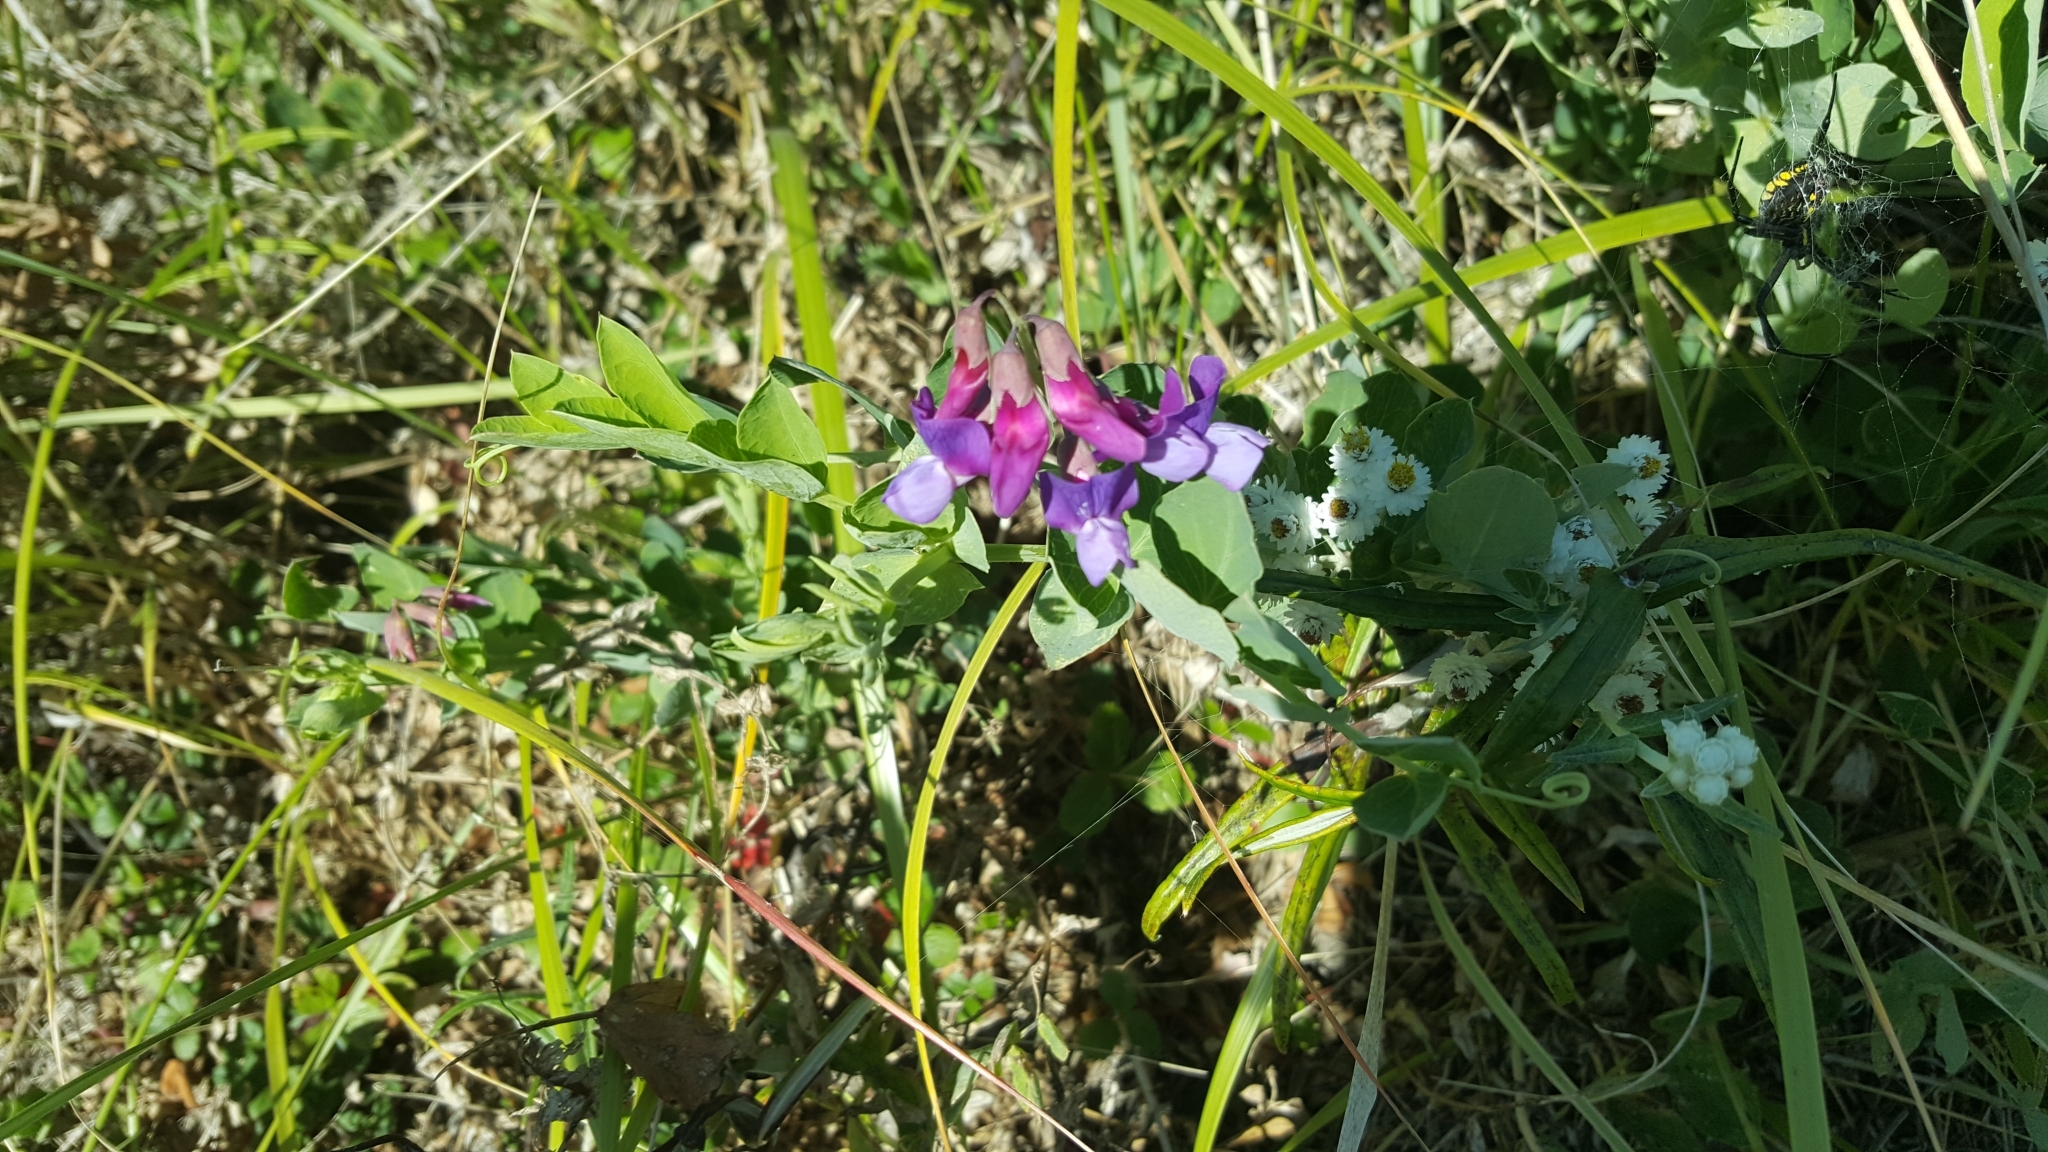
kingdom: Plantae
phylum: Tracheophyta
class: Magnoliopsida
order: Fabales
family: Fabaceae
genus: Lathyrus
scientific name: Lathyrus japonicus
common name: Sea pea
